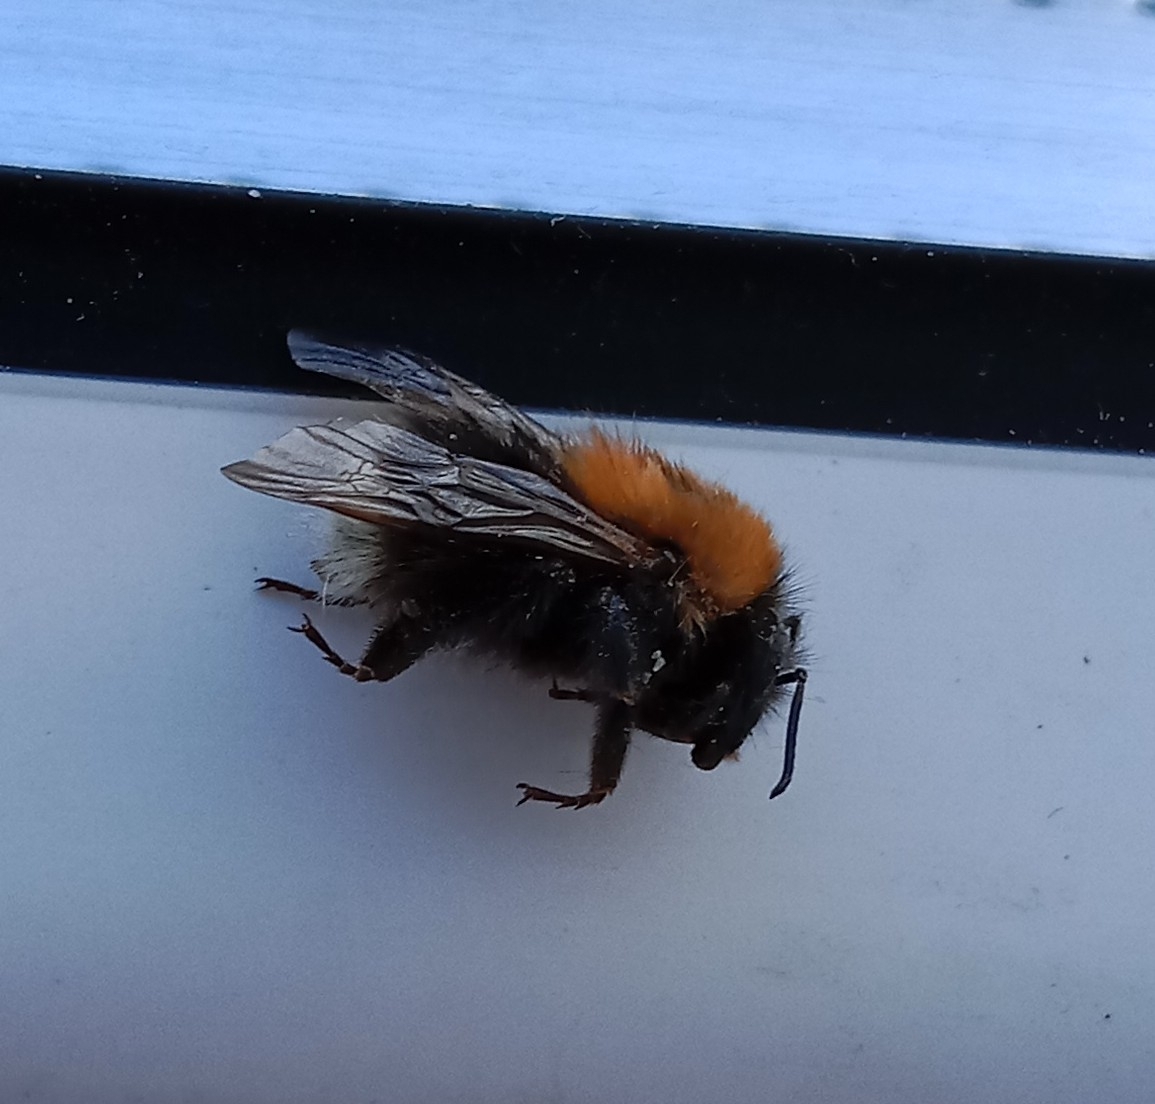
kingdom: Animalia
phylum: Arthropoda
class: Insecta
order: Hymenoptera
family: Apidae
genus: Bombus
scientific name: Bombus hypnorum
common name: New garden bumblebee
